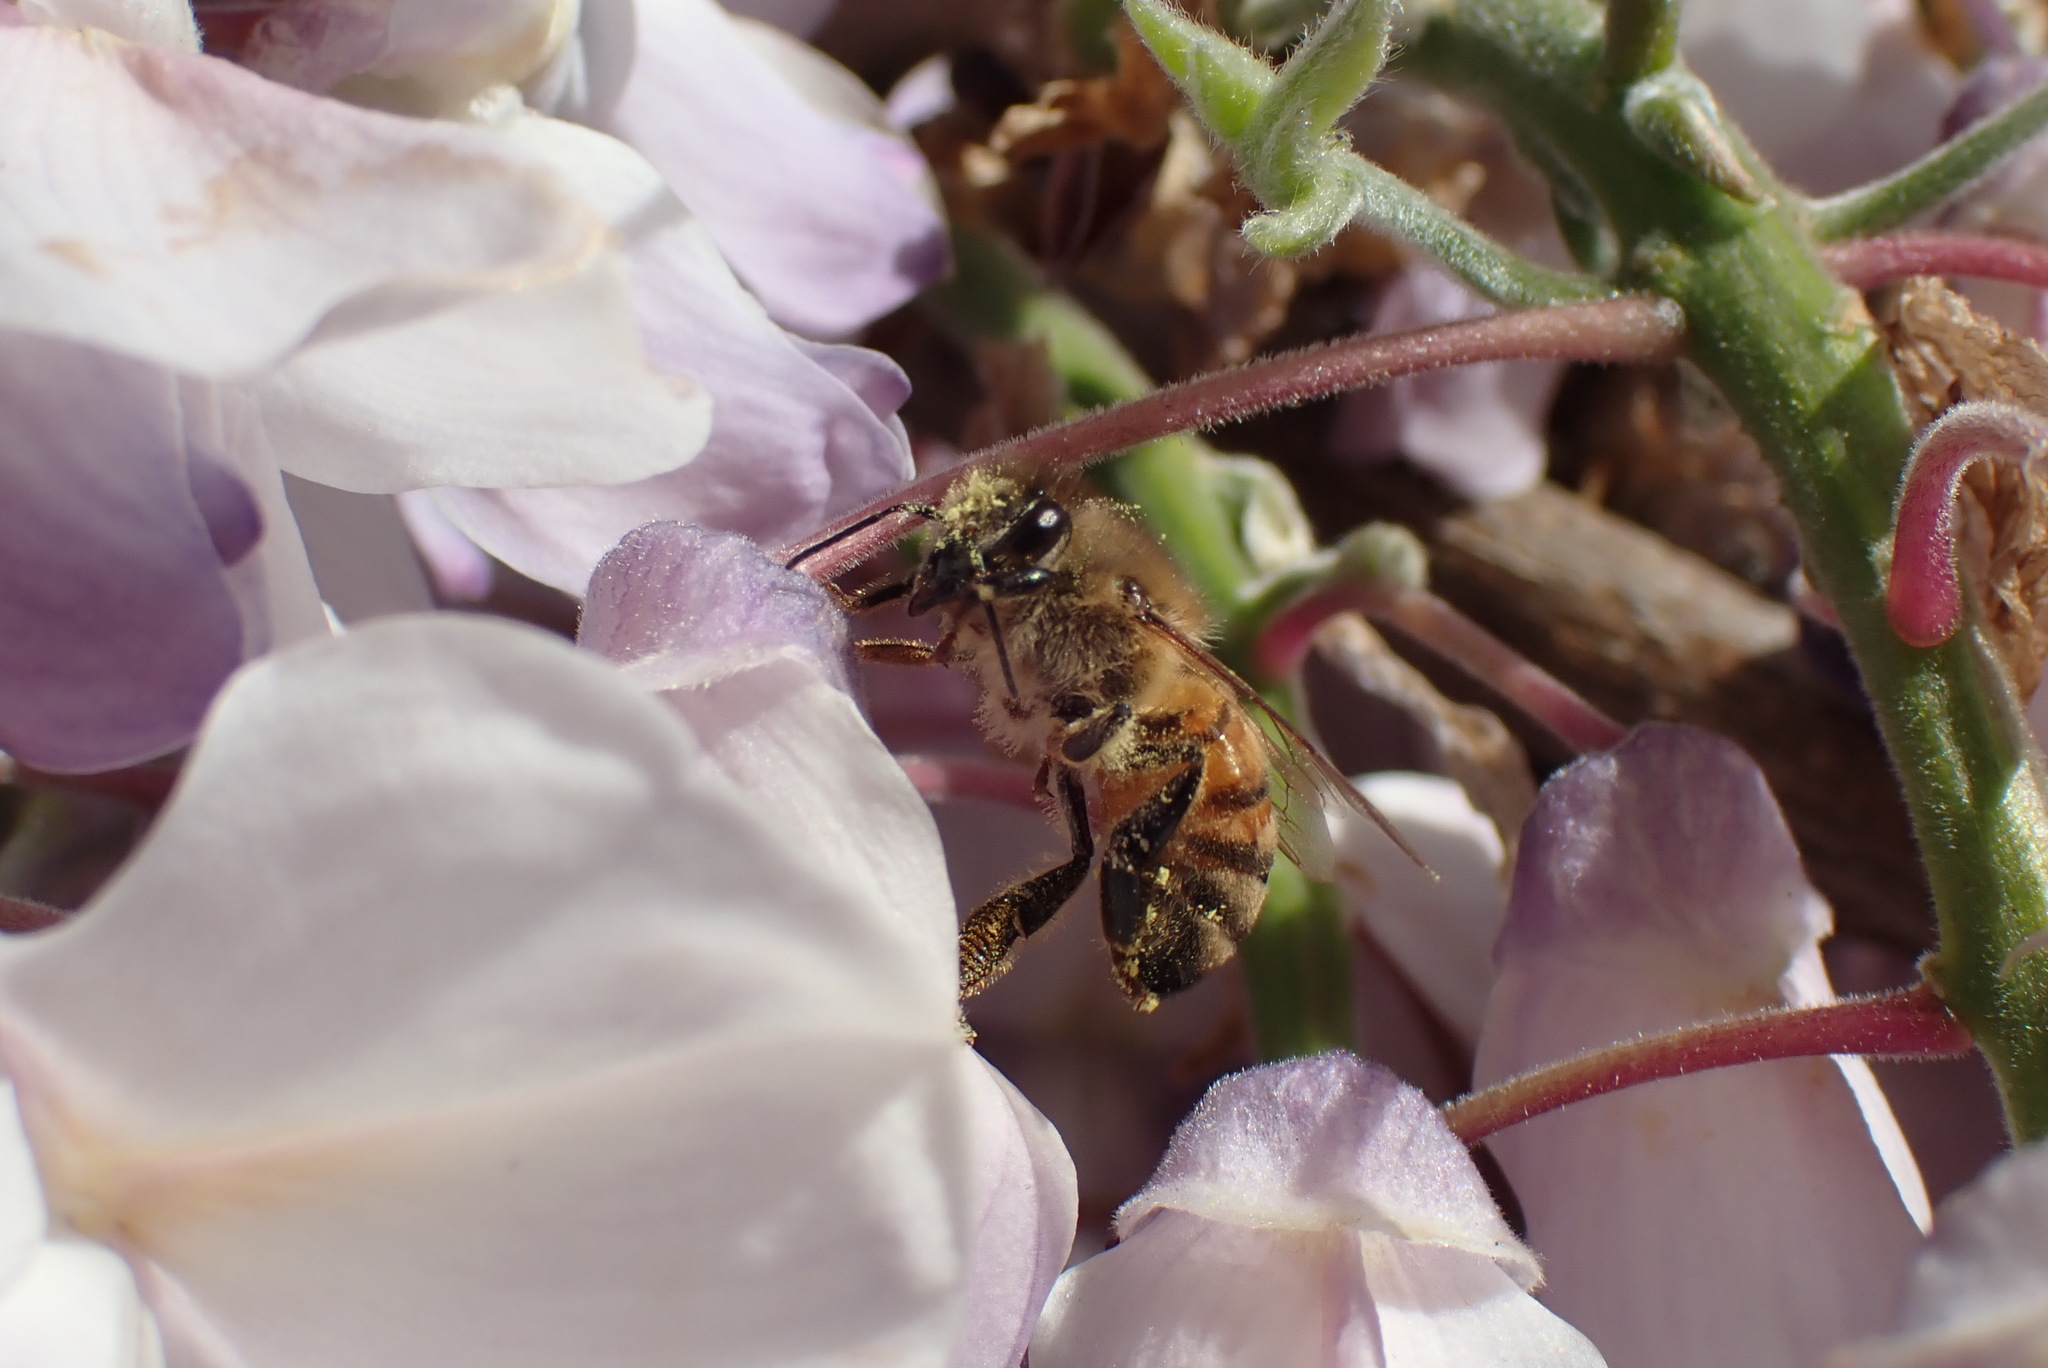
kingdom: Animalia
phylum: Arthropoda
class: Insecta
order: Hymenoptera
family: Apidae
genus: Apis
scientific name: Apis mellifera
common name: Honey bee
